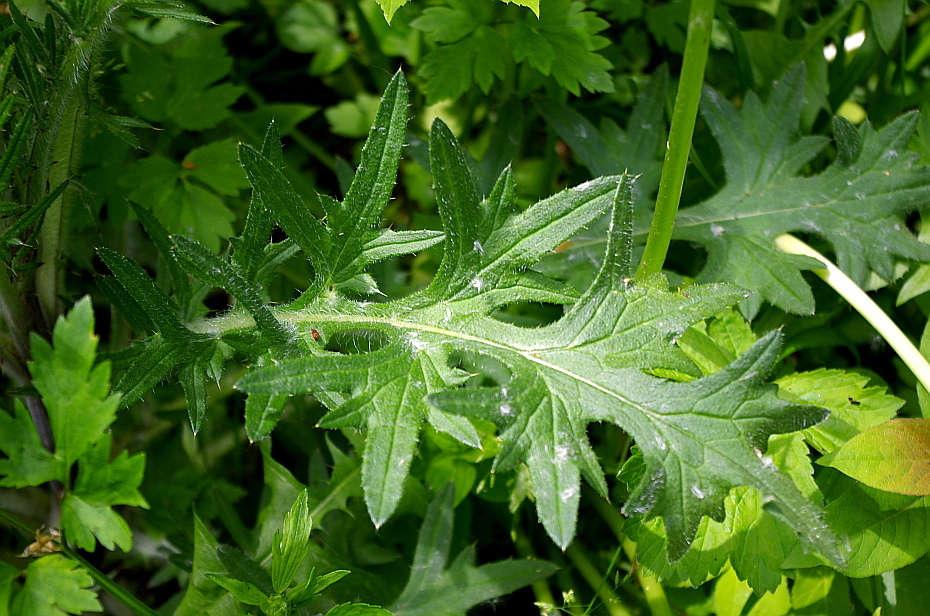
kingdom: Plantae
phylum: Tracheophyta
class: Magnoliopsida
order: Asterales
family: Asteraceae
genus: Cirsium
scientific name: Cirsium vulgare
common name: Bull thistle
